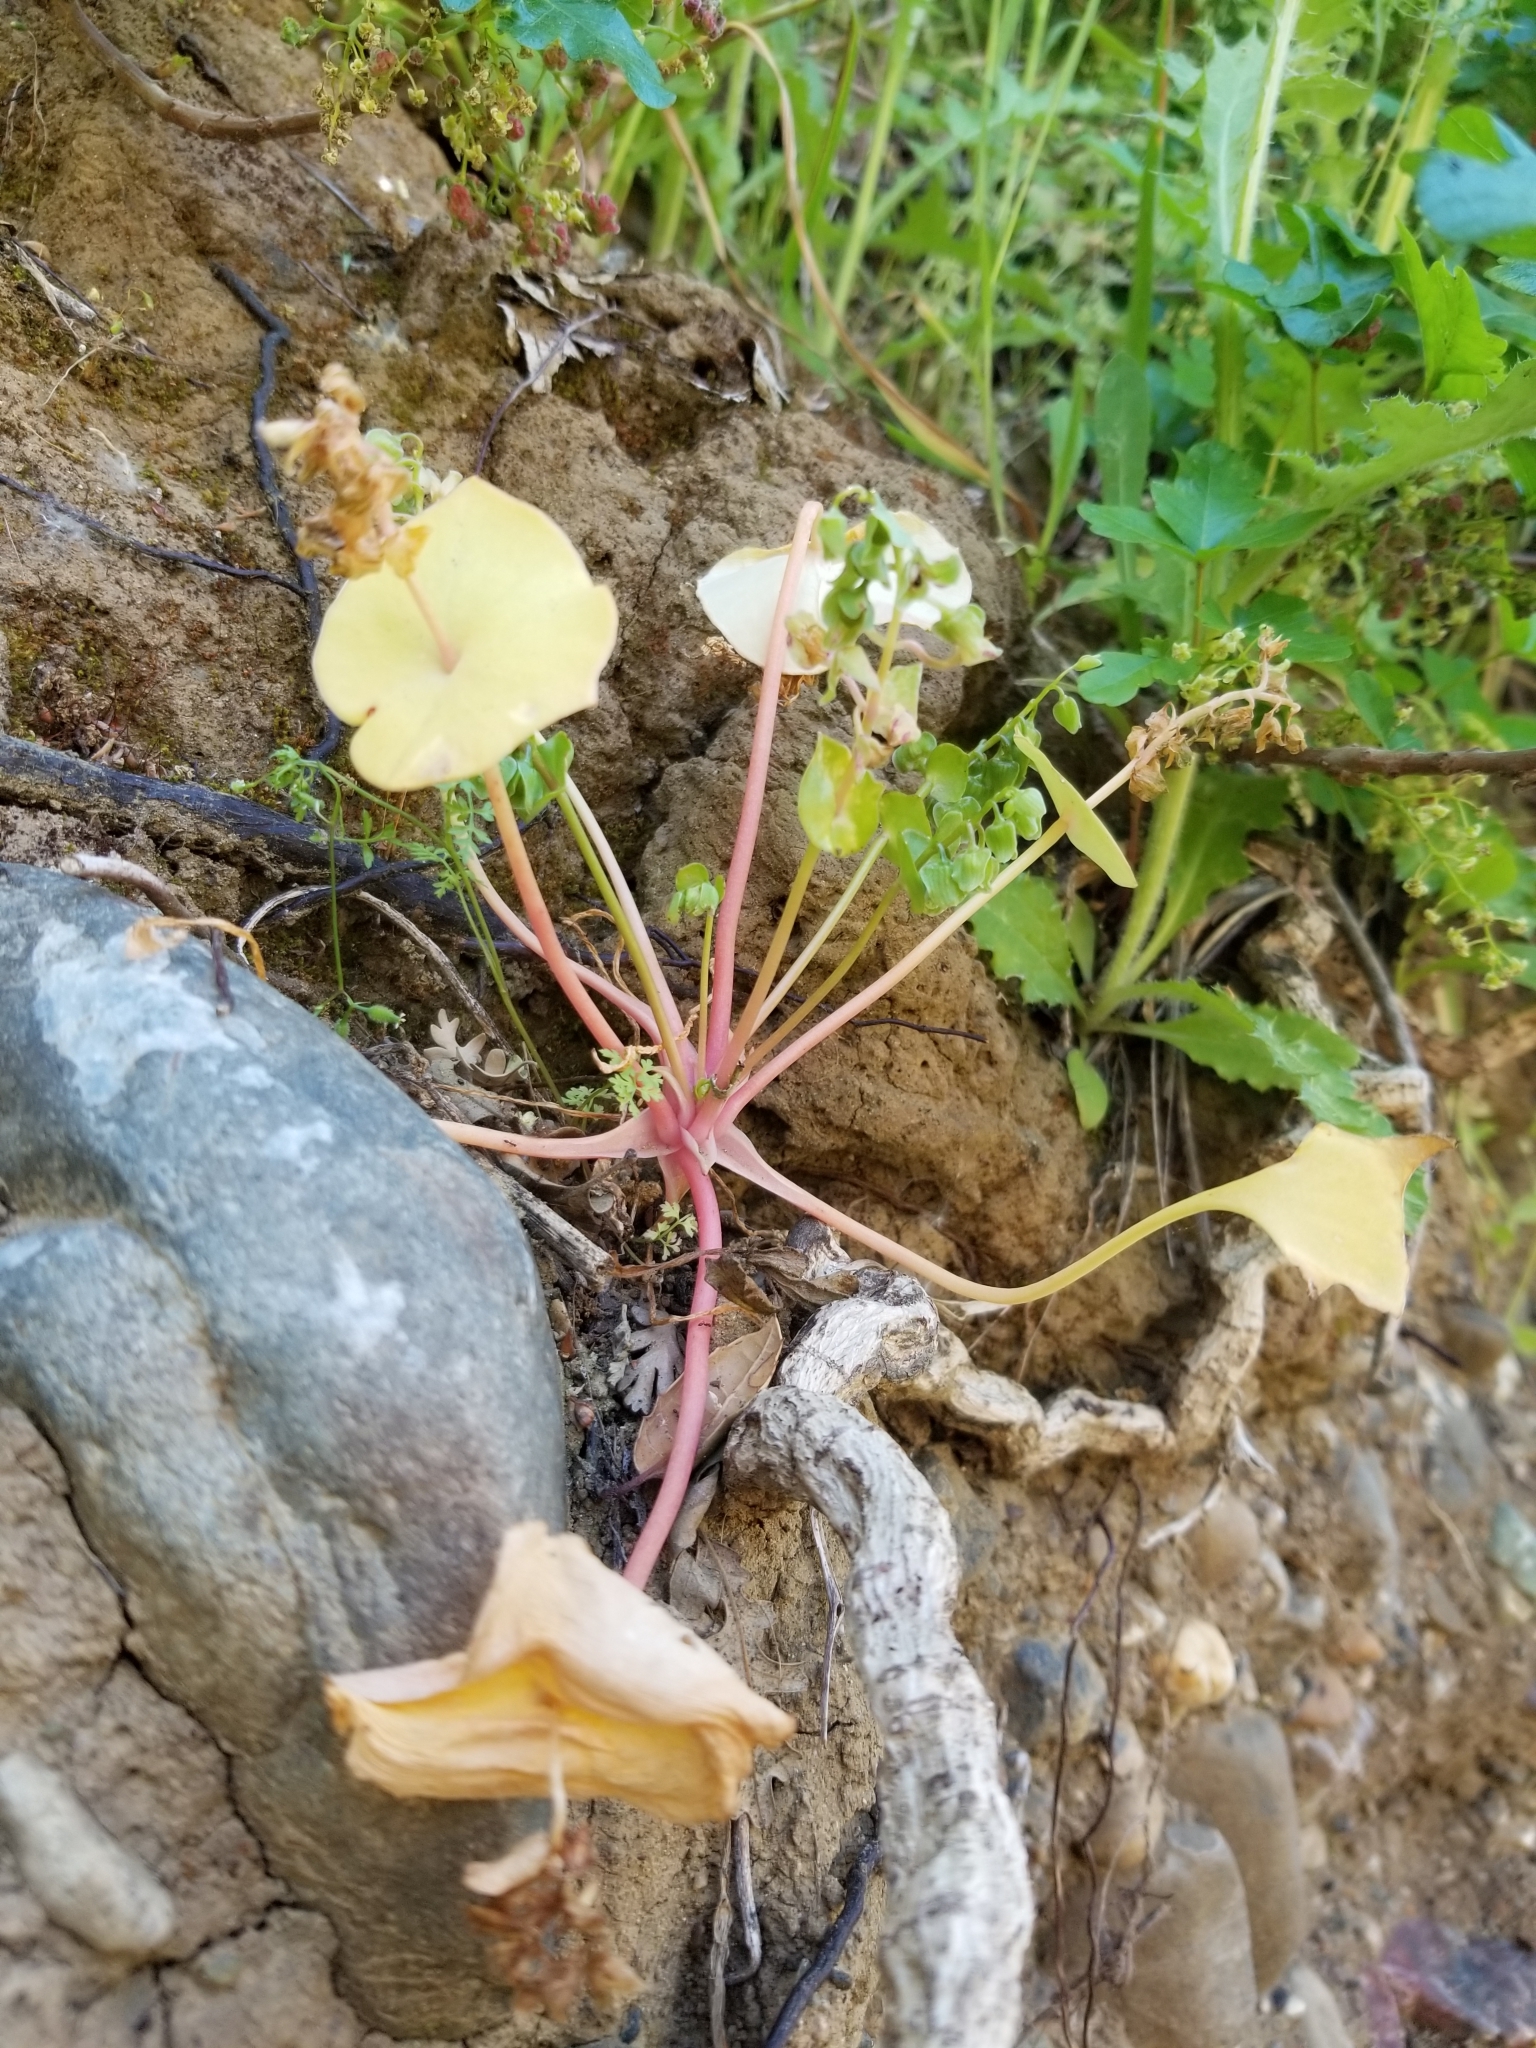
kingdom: Plantae
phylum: Tracheophyta
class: Magnoliopsida
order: Caryophyllales
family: Montiaceae
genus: Claytonia
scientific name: Claytonia perfoliata
